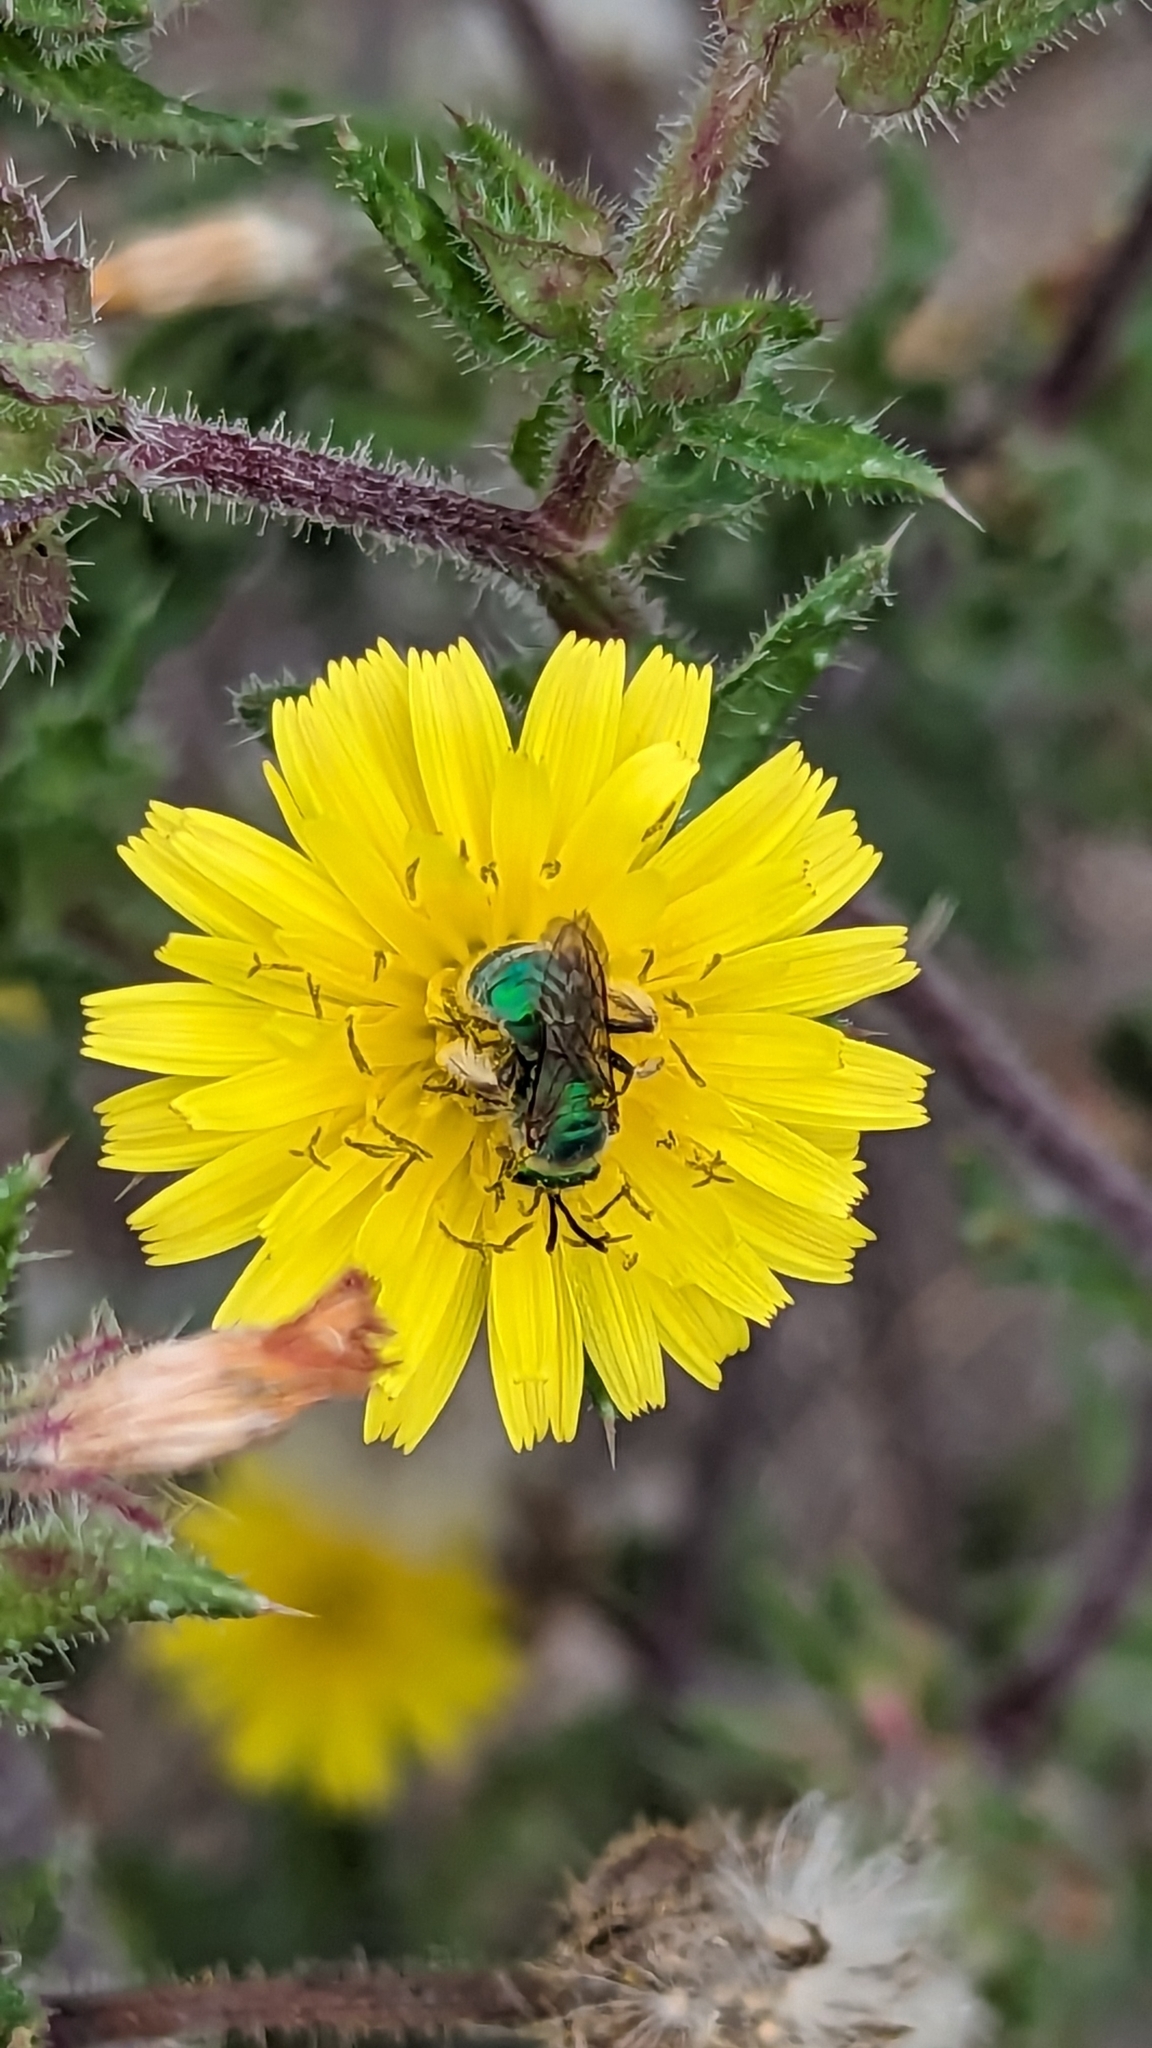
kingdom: Animalia
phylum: Arthropoda
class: Insecta
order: Hymenoptera
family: Halictidae
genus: Augochlorella
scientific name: Augochlorella pomoniella
